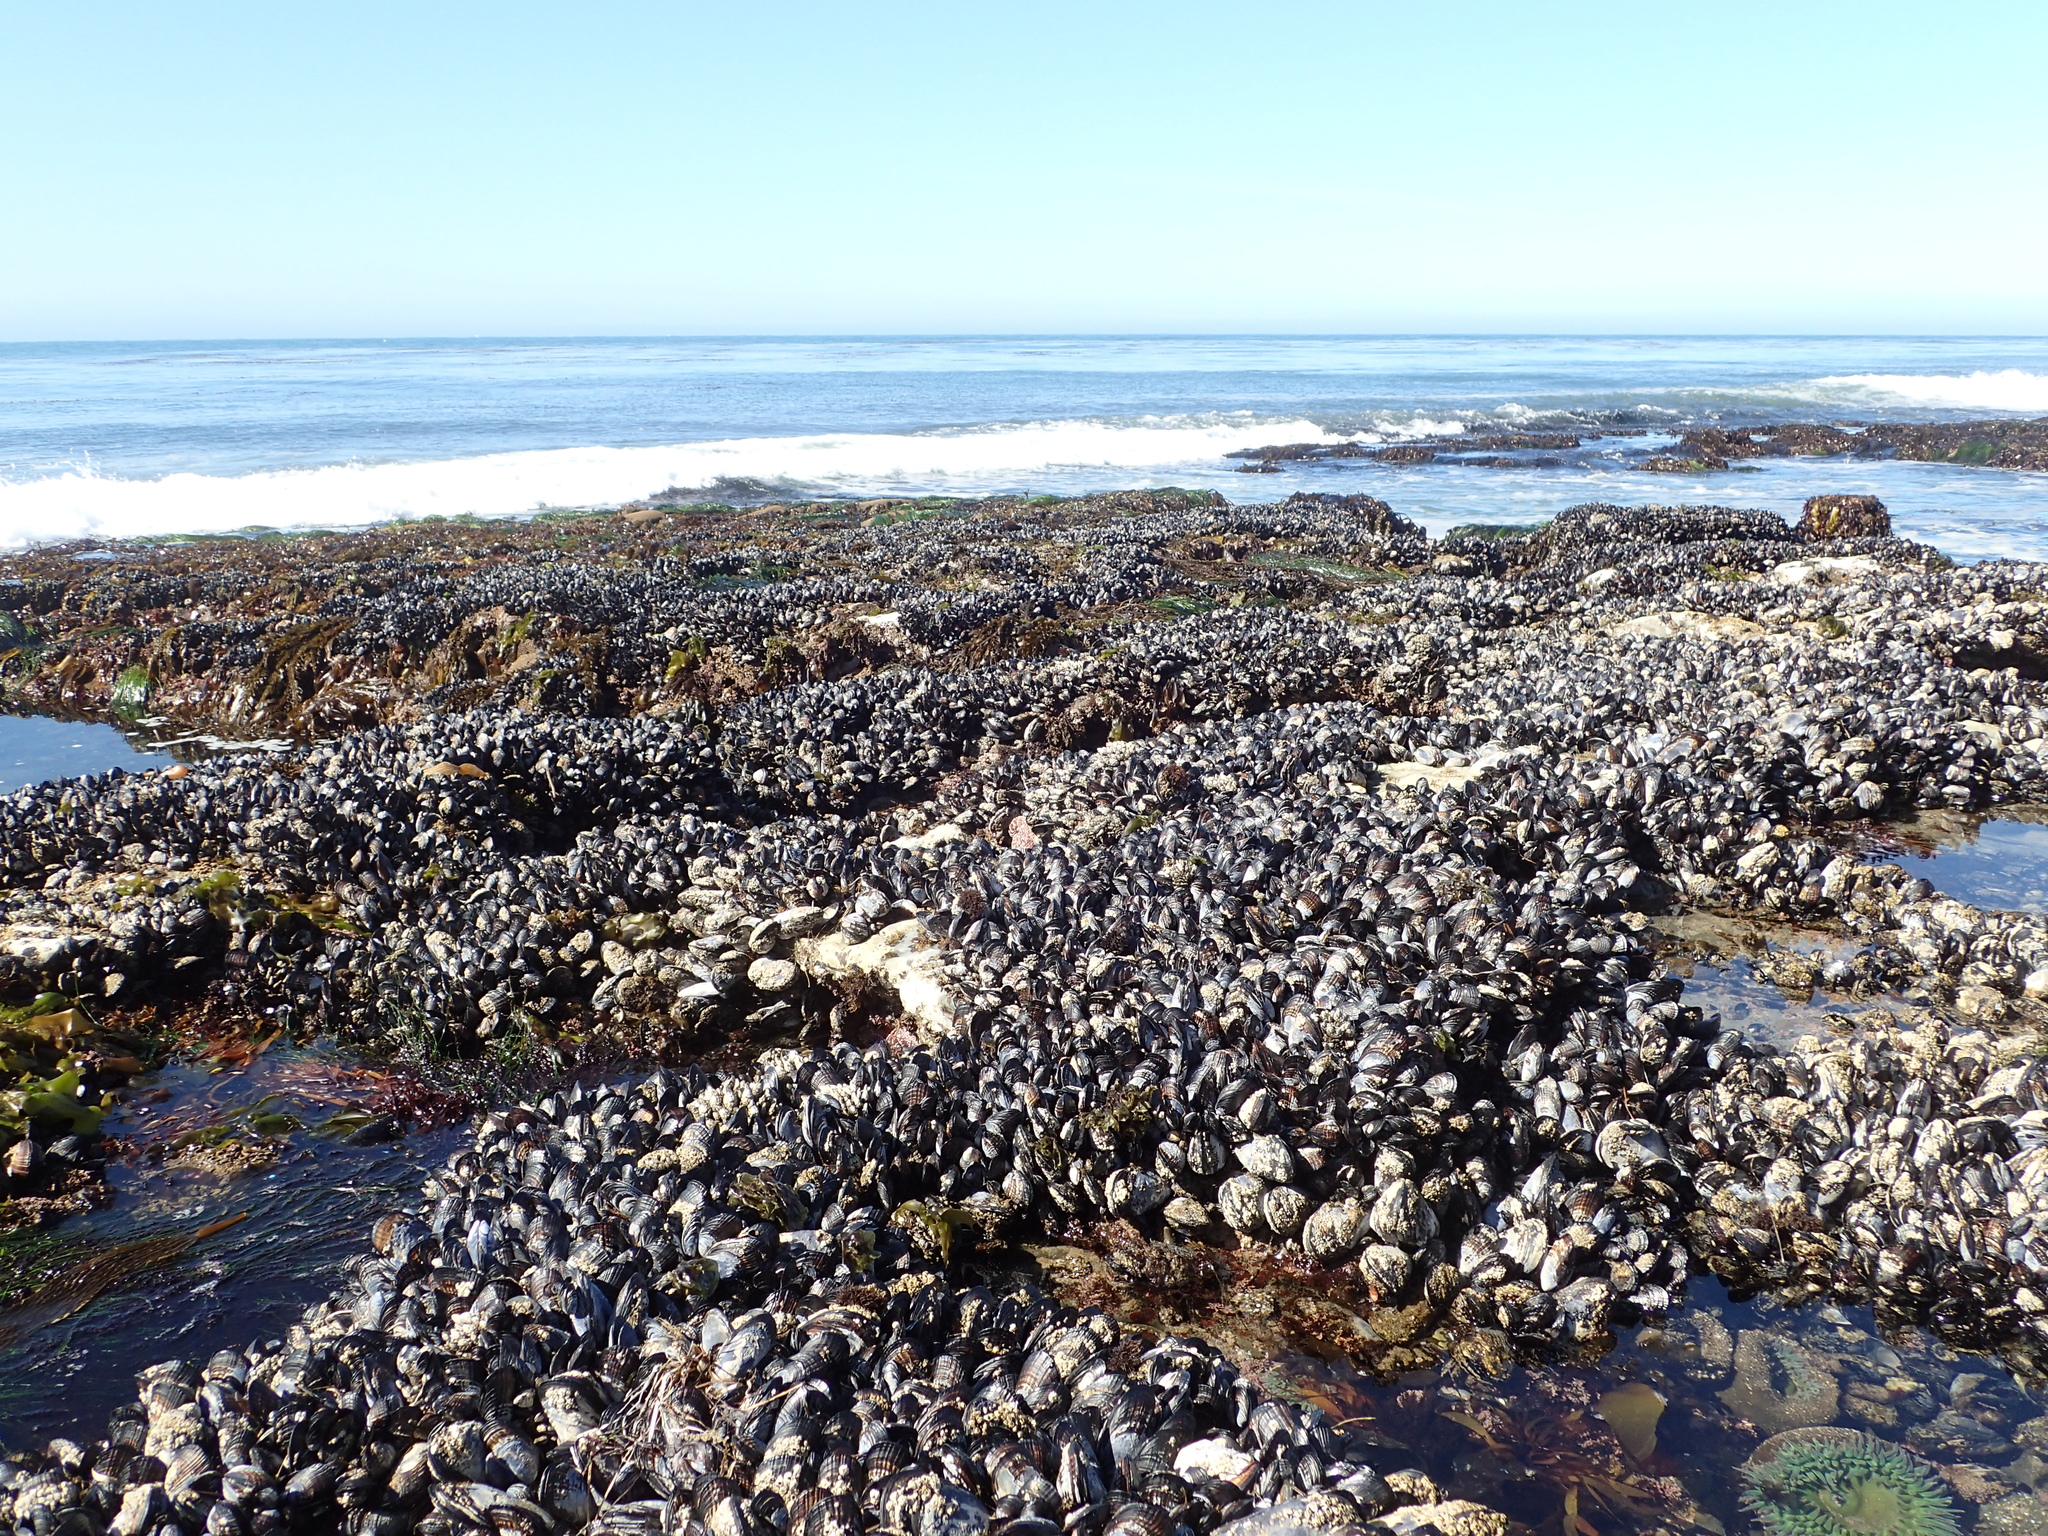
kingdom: Animalia
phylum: Mollusca
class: Bivalvia
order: Mytilida
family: Mytilidae
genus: Mytilus
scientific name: Mytilus californianus
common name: California mussel
